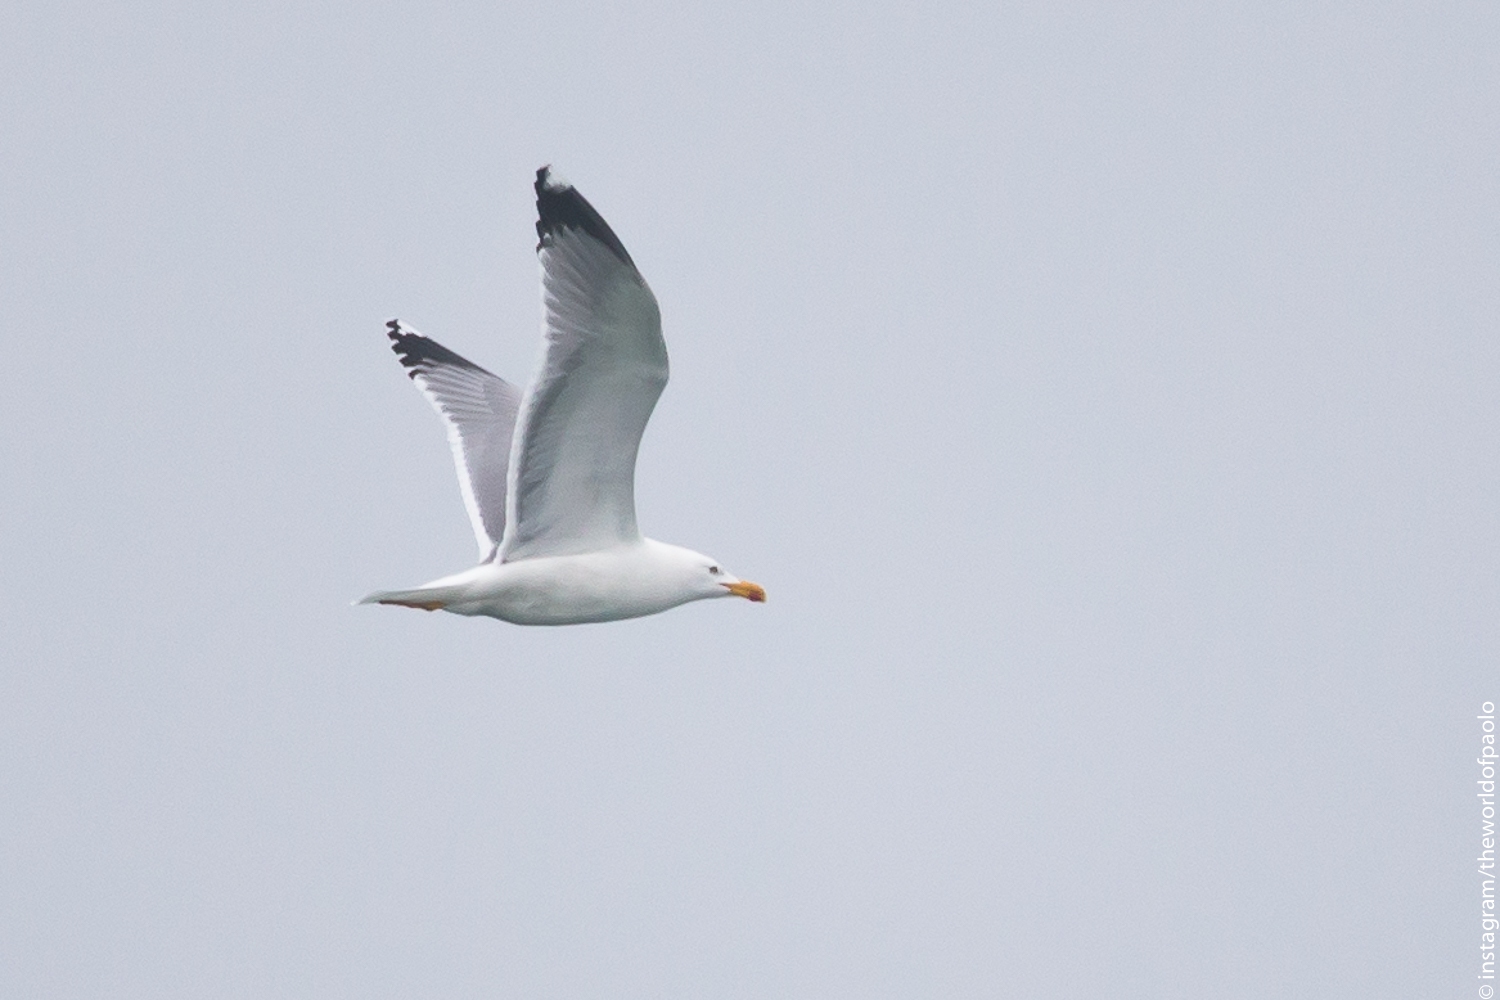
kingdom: Animalia
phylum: Chordata
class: Aves
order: Charadriiformes
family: Laridae
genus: Larus
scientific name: Larus michahellis
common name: Yellow-legged gull
